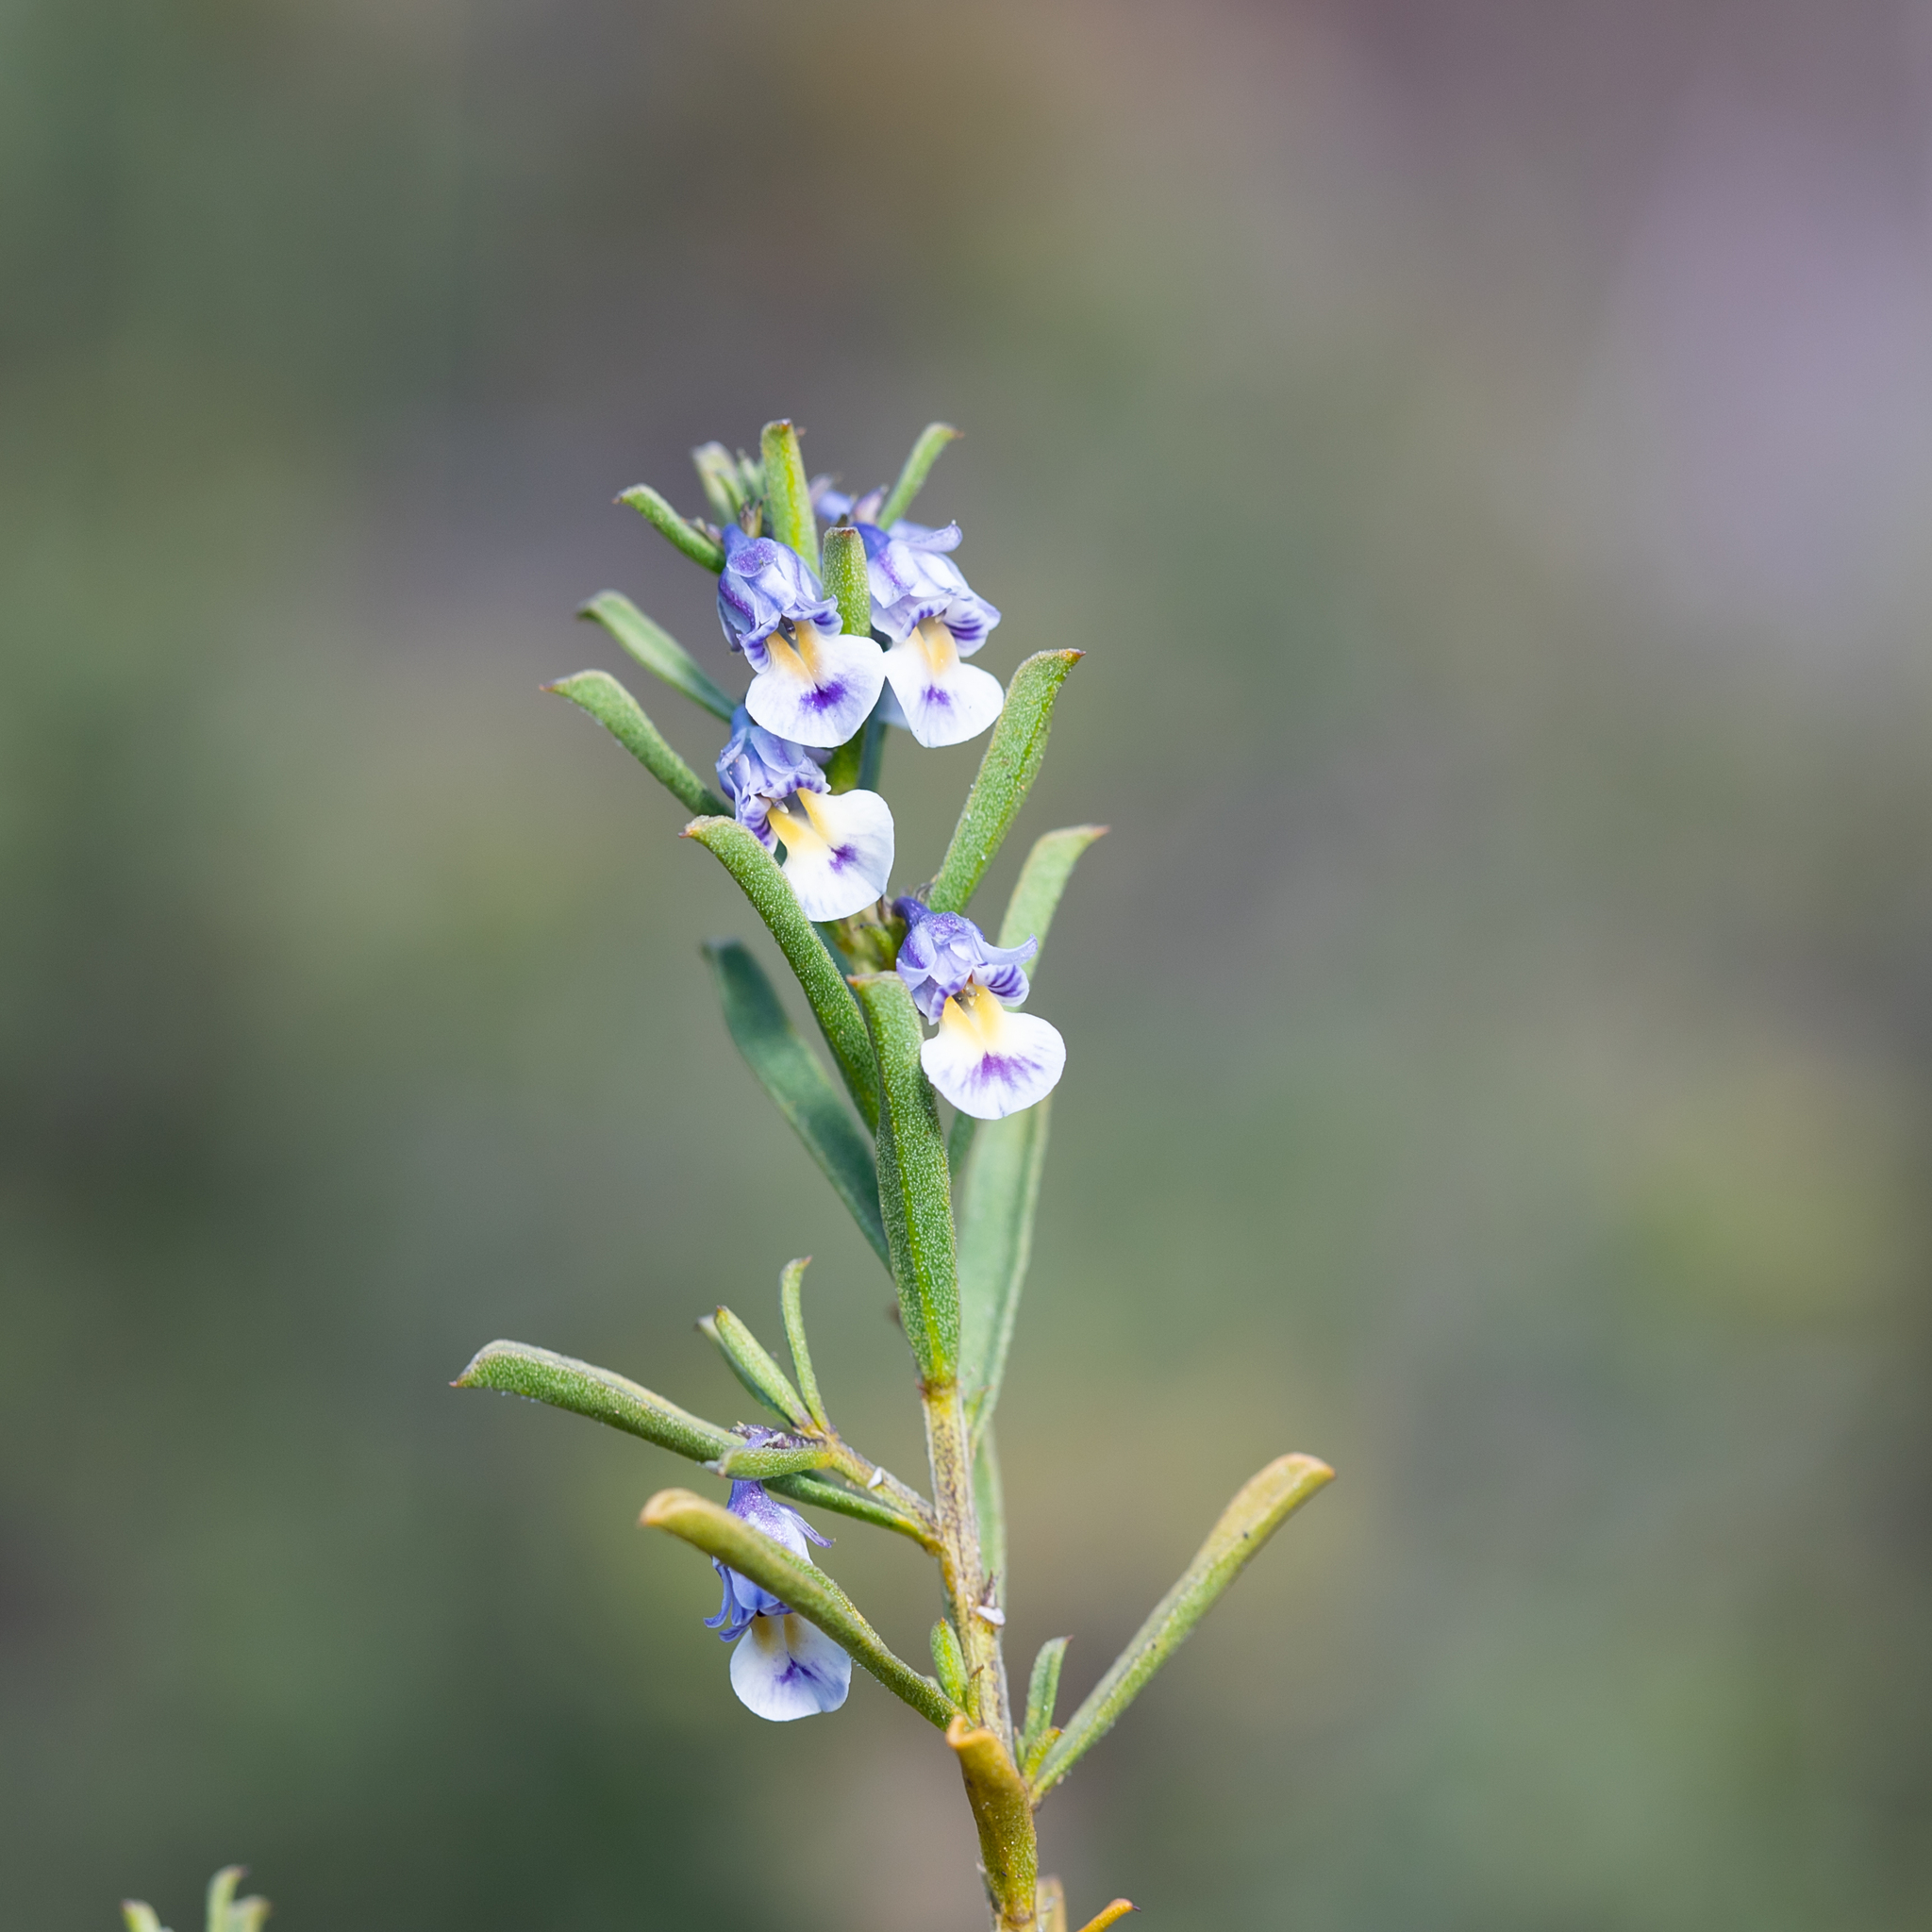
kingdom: Plantae
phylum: Tracheophyta
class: Magnoliopsida
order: Malpighiales
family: Violaceae
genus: Pigea
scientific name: Pigea floribunda
